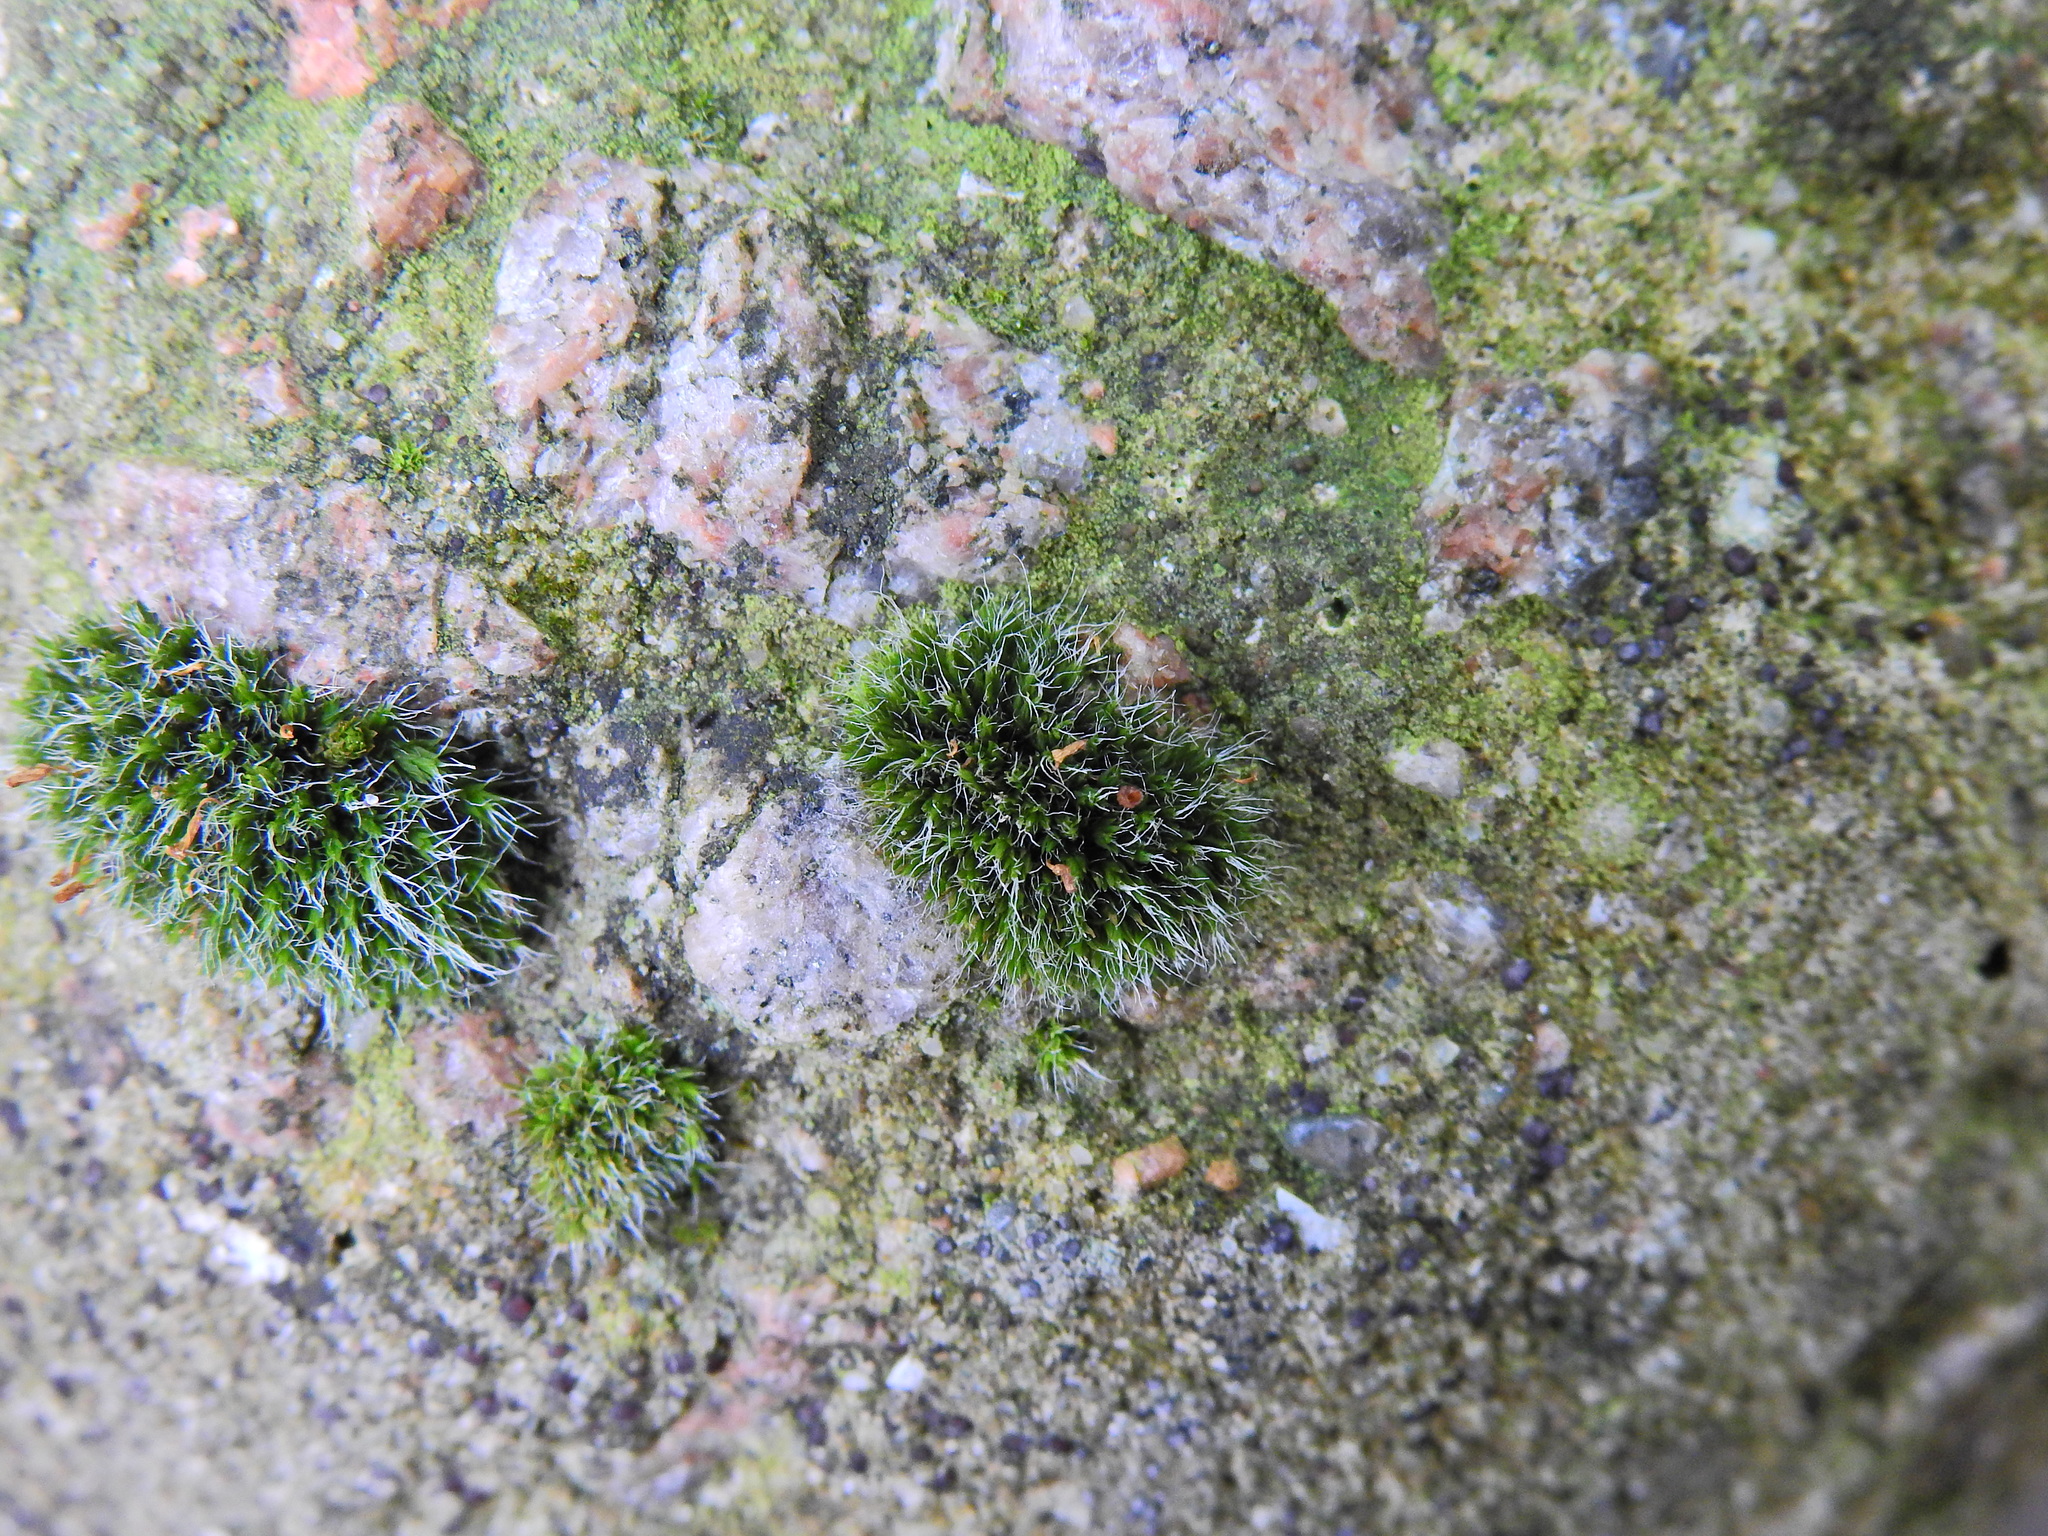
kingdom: Plantae
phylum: Bryophyta
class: Bryopsida
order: Grimmiales
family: Grimmiaceae
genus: Grimmia
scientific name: Grimmia pulvinata
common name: Grey-cushioned grimmia
